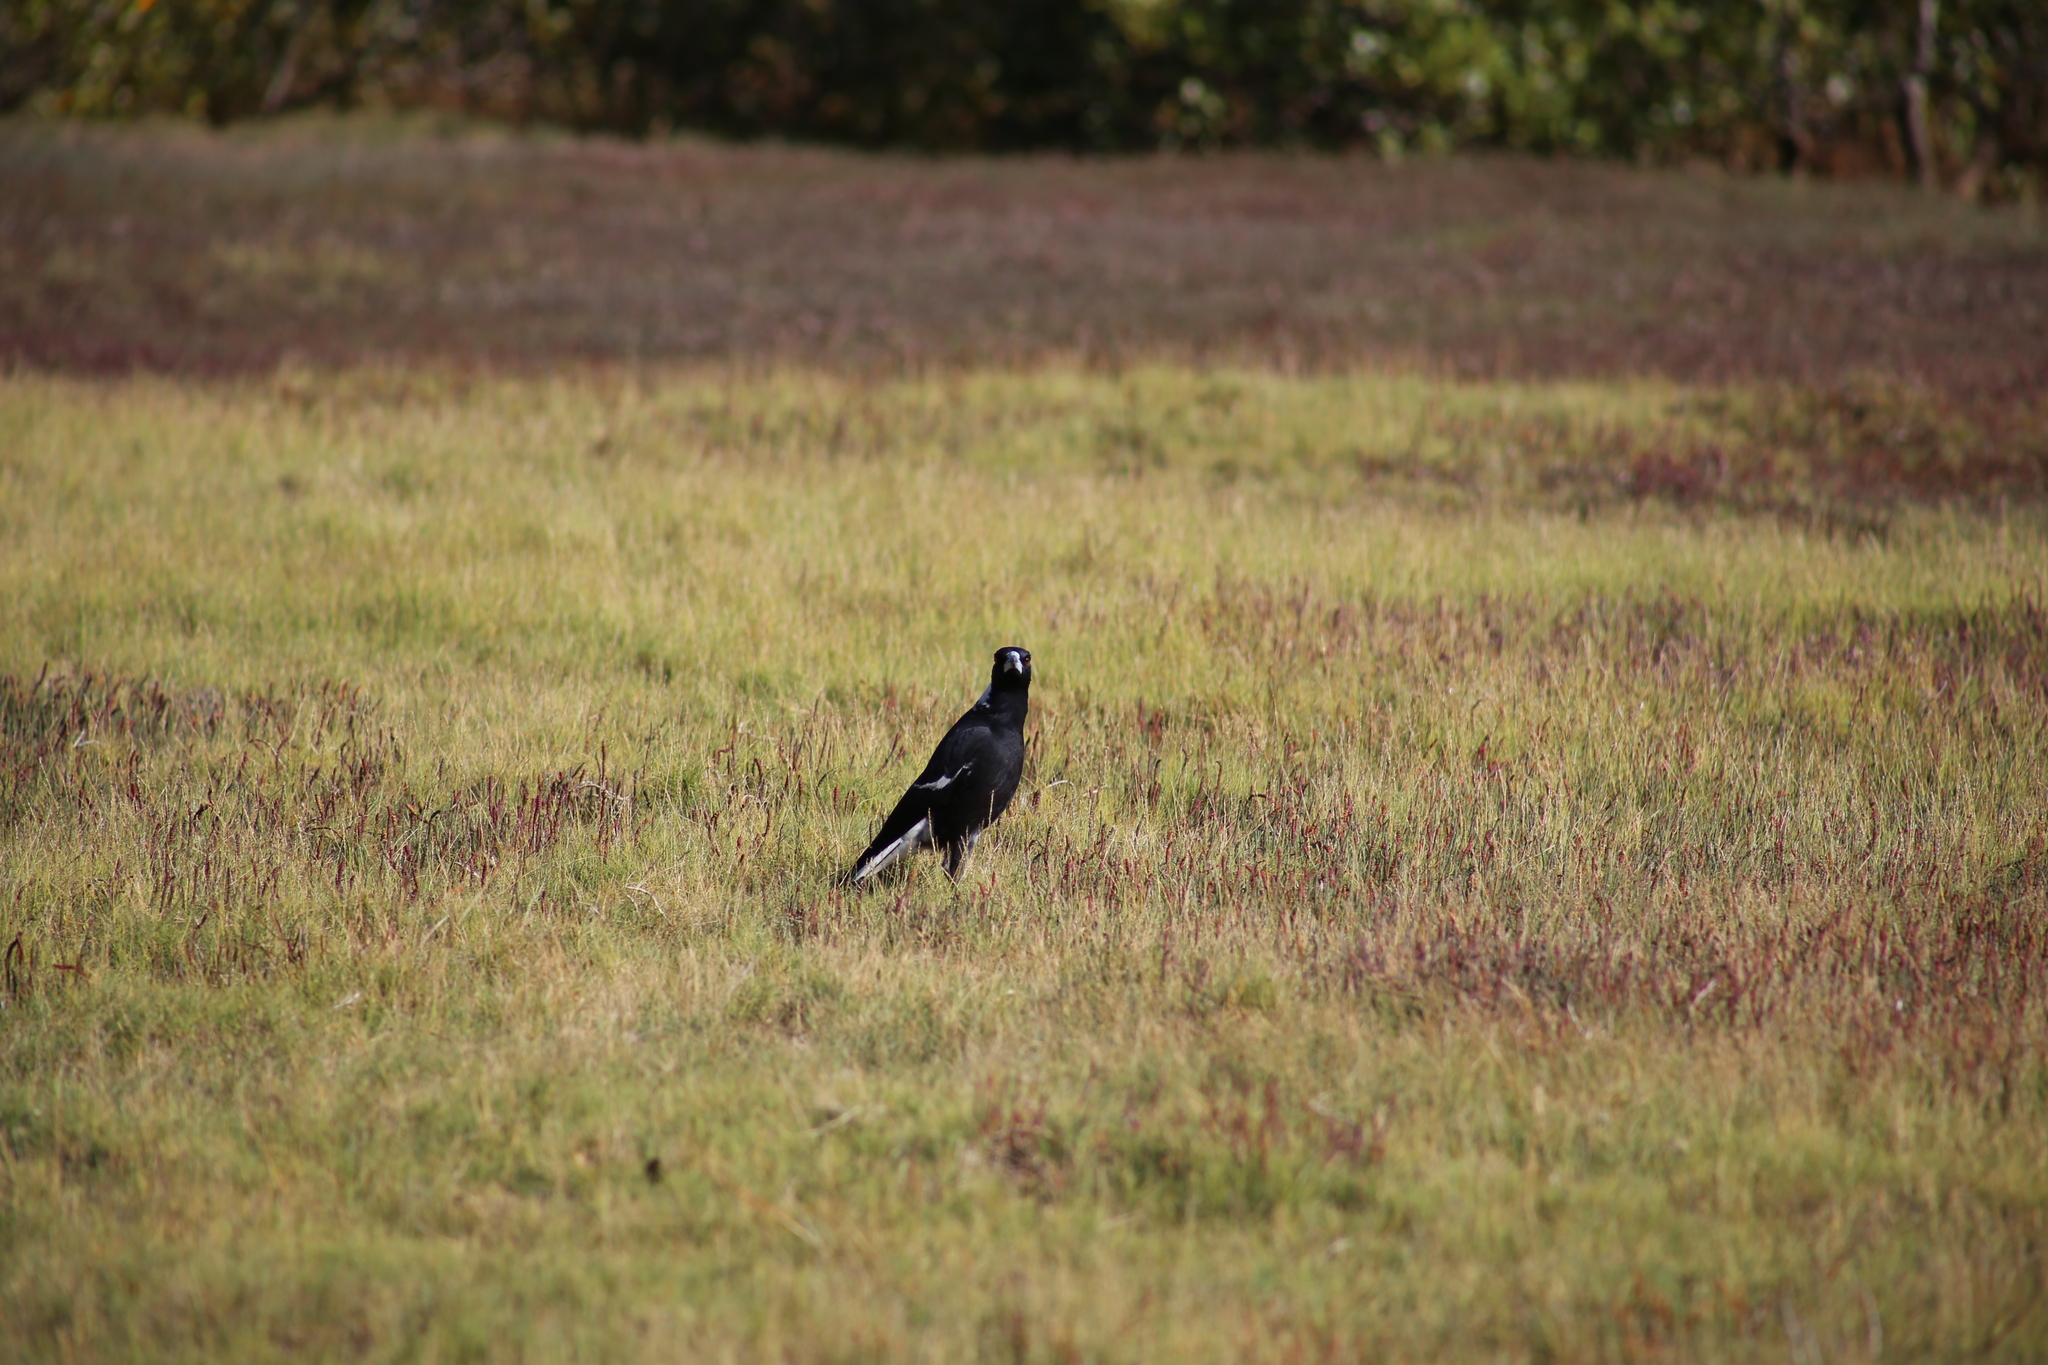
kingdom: Animalia
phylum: Chordata
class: Aves
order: Passeriformes
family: Cracticidae
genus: Gymnorhina
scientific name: Gymnorhina tibicen
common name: Australian magpie
